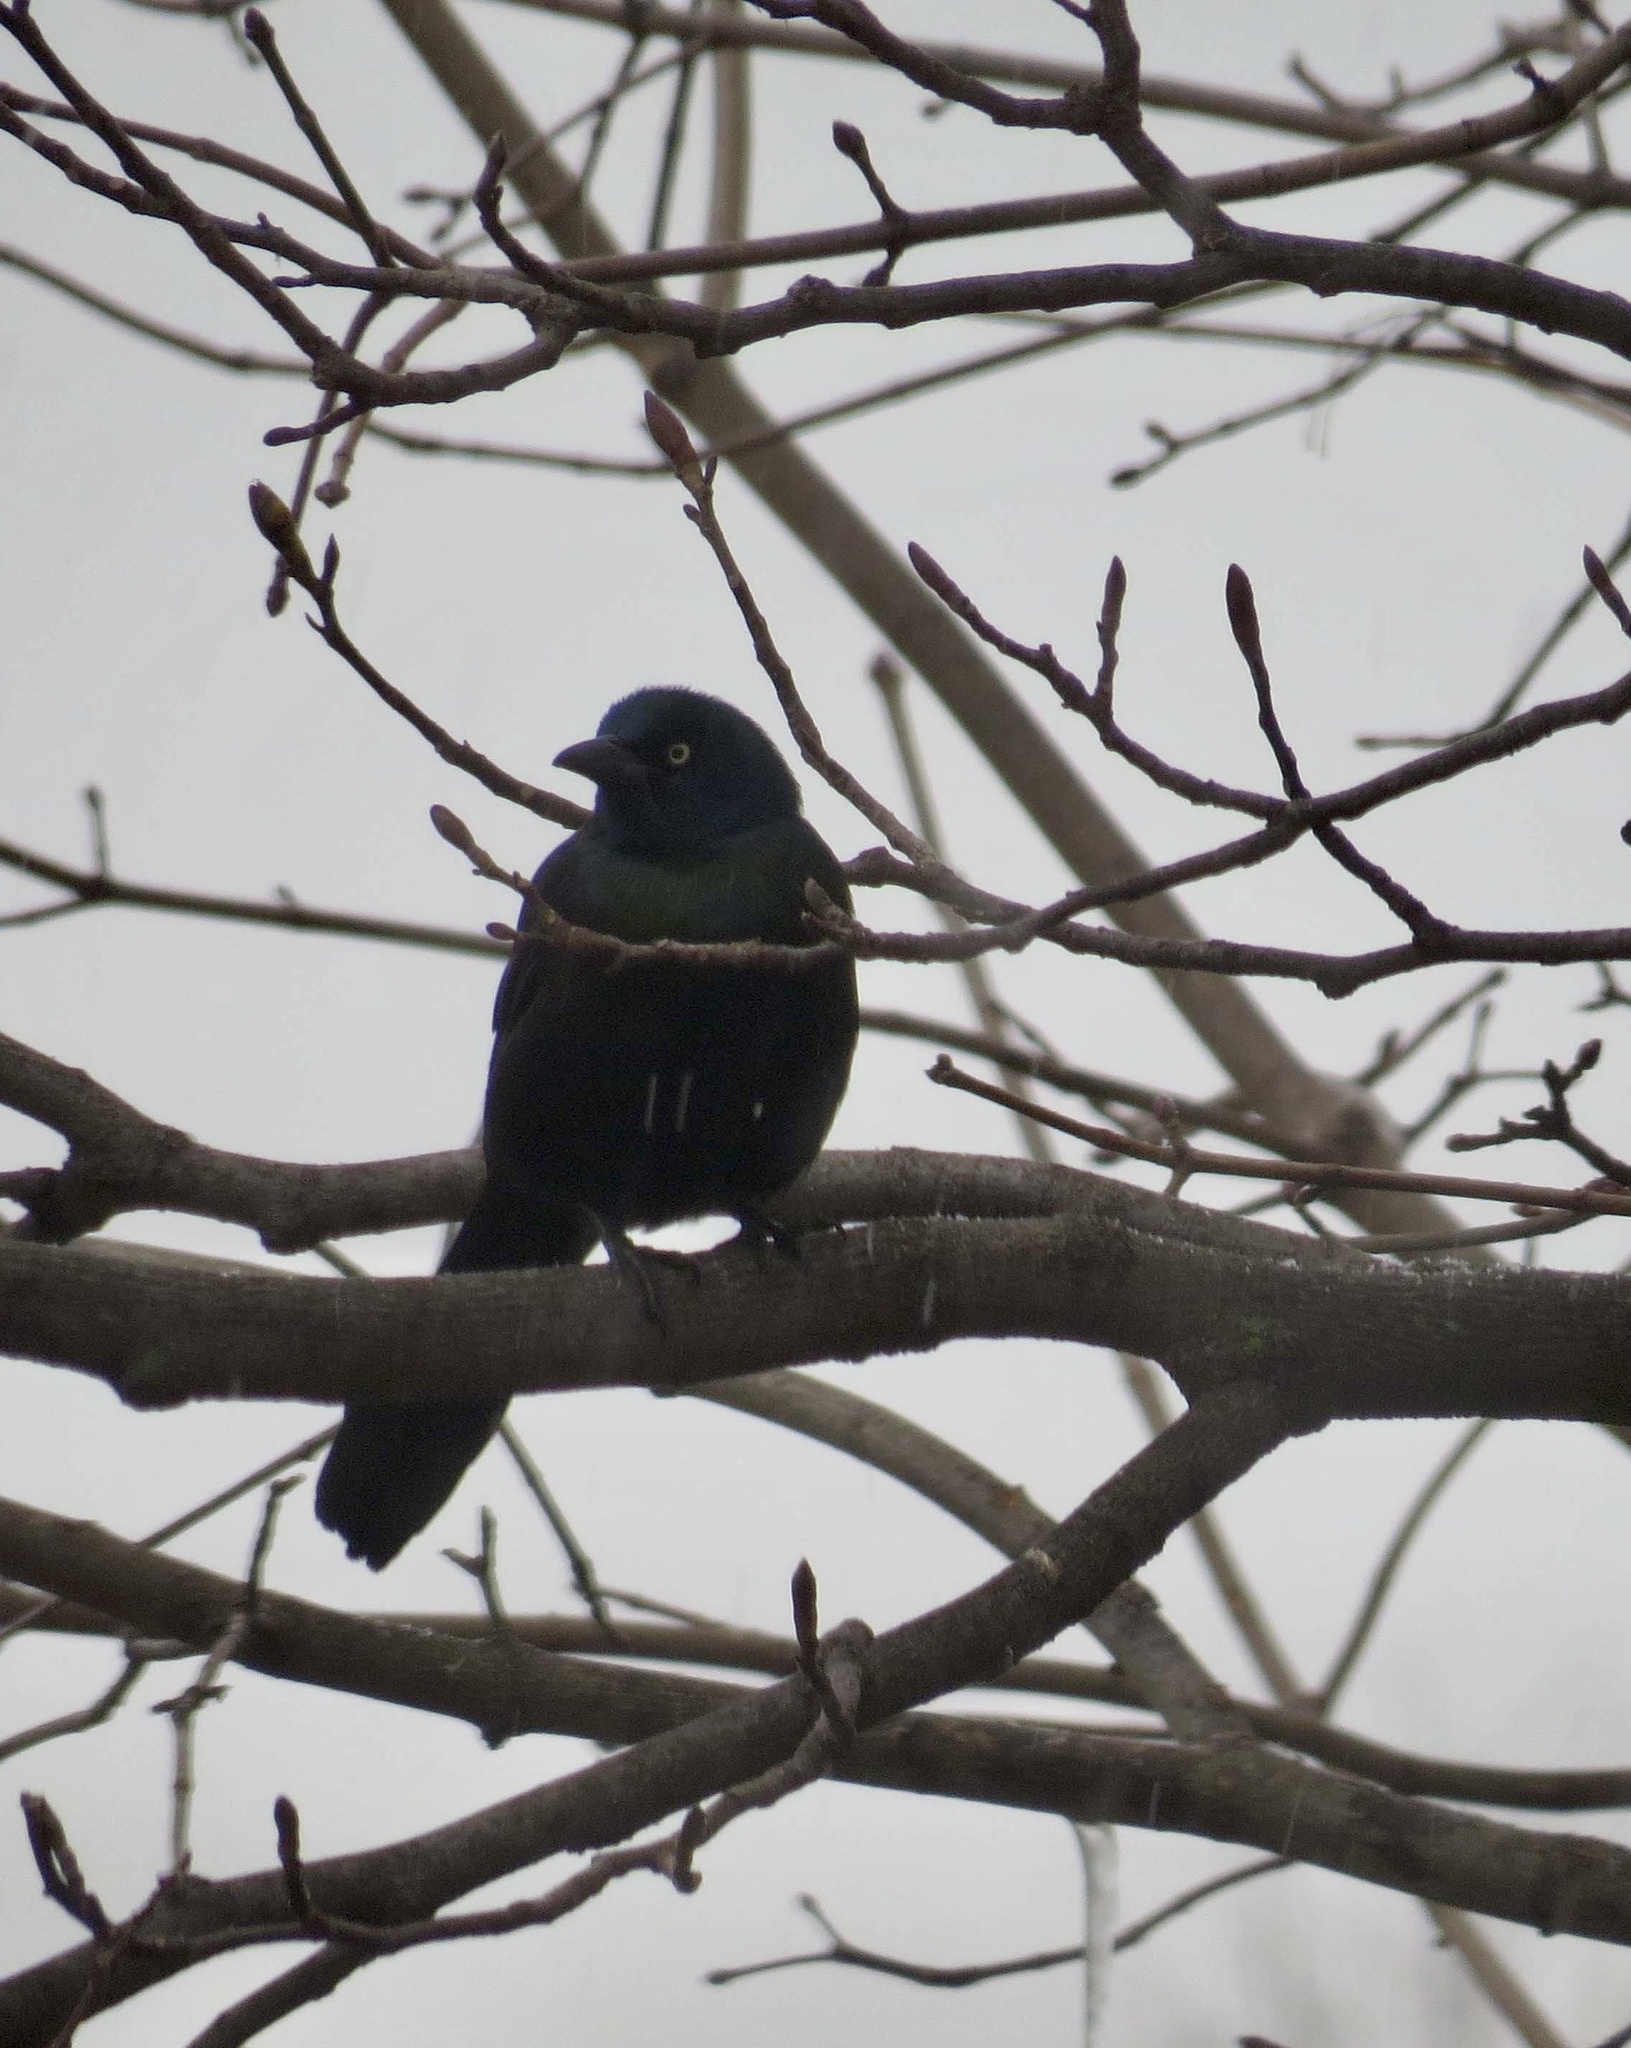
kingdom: Animalia
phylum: Chordata
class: Aves
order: Passeriformes
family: Icteridae
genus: Quiscalus
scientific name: Quiscalus quiscula
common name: Common grackle
